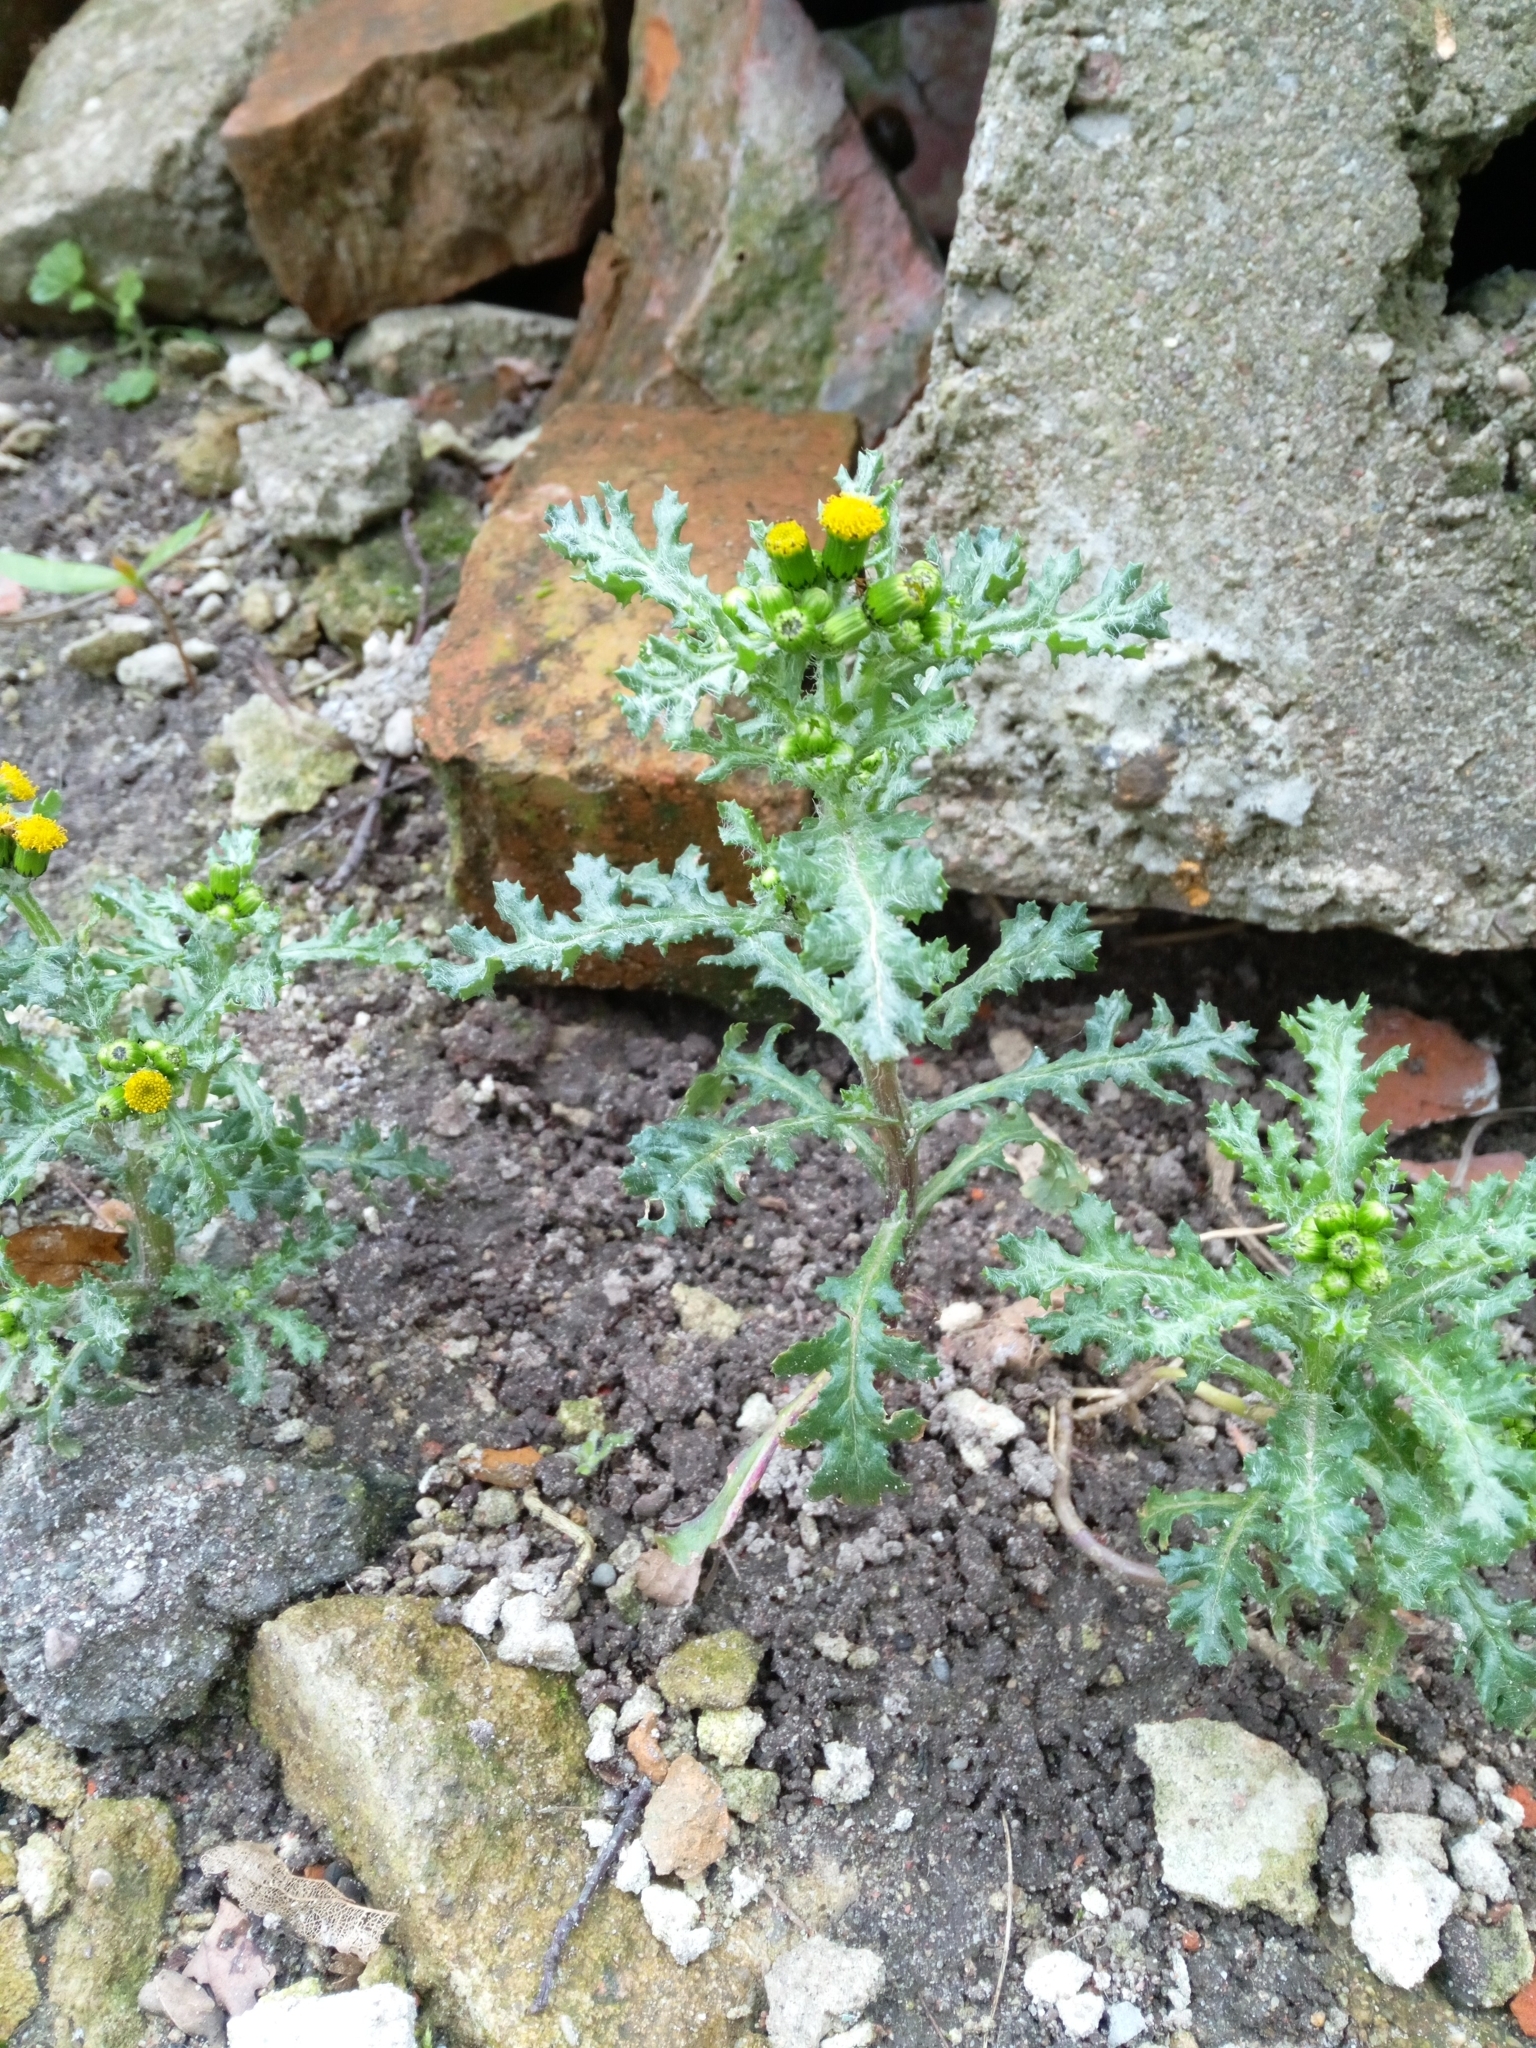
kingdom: Plantae
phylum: Tracheophyta
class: Magnoliopsida
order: Asterales
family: Asteraceae
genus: Senecio
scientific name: Senecio vulgaris
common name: Old-man-in-the-spring
